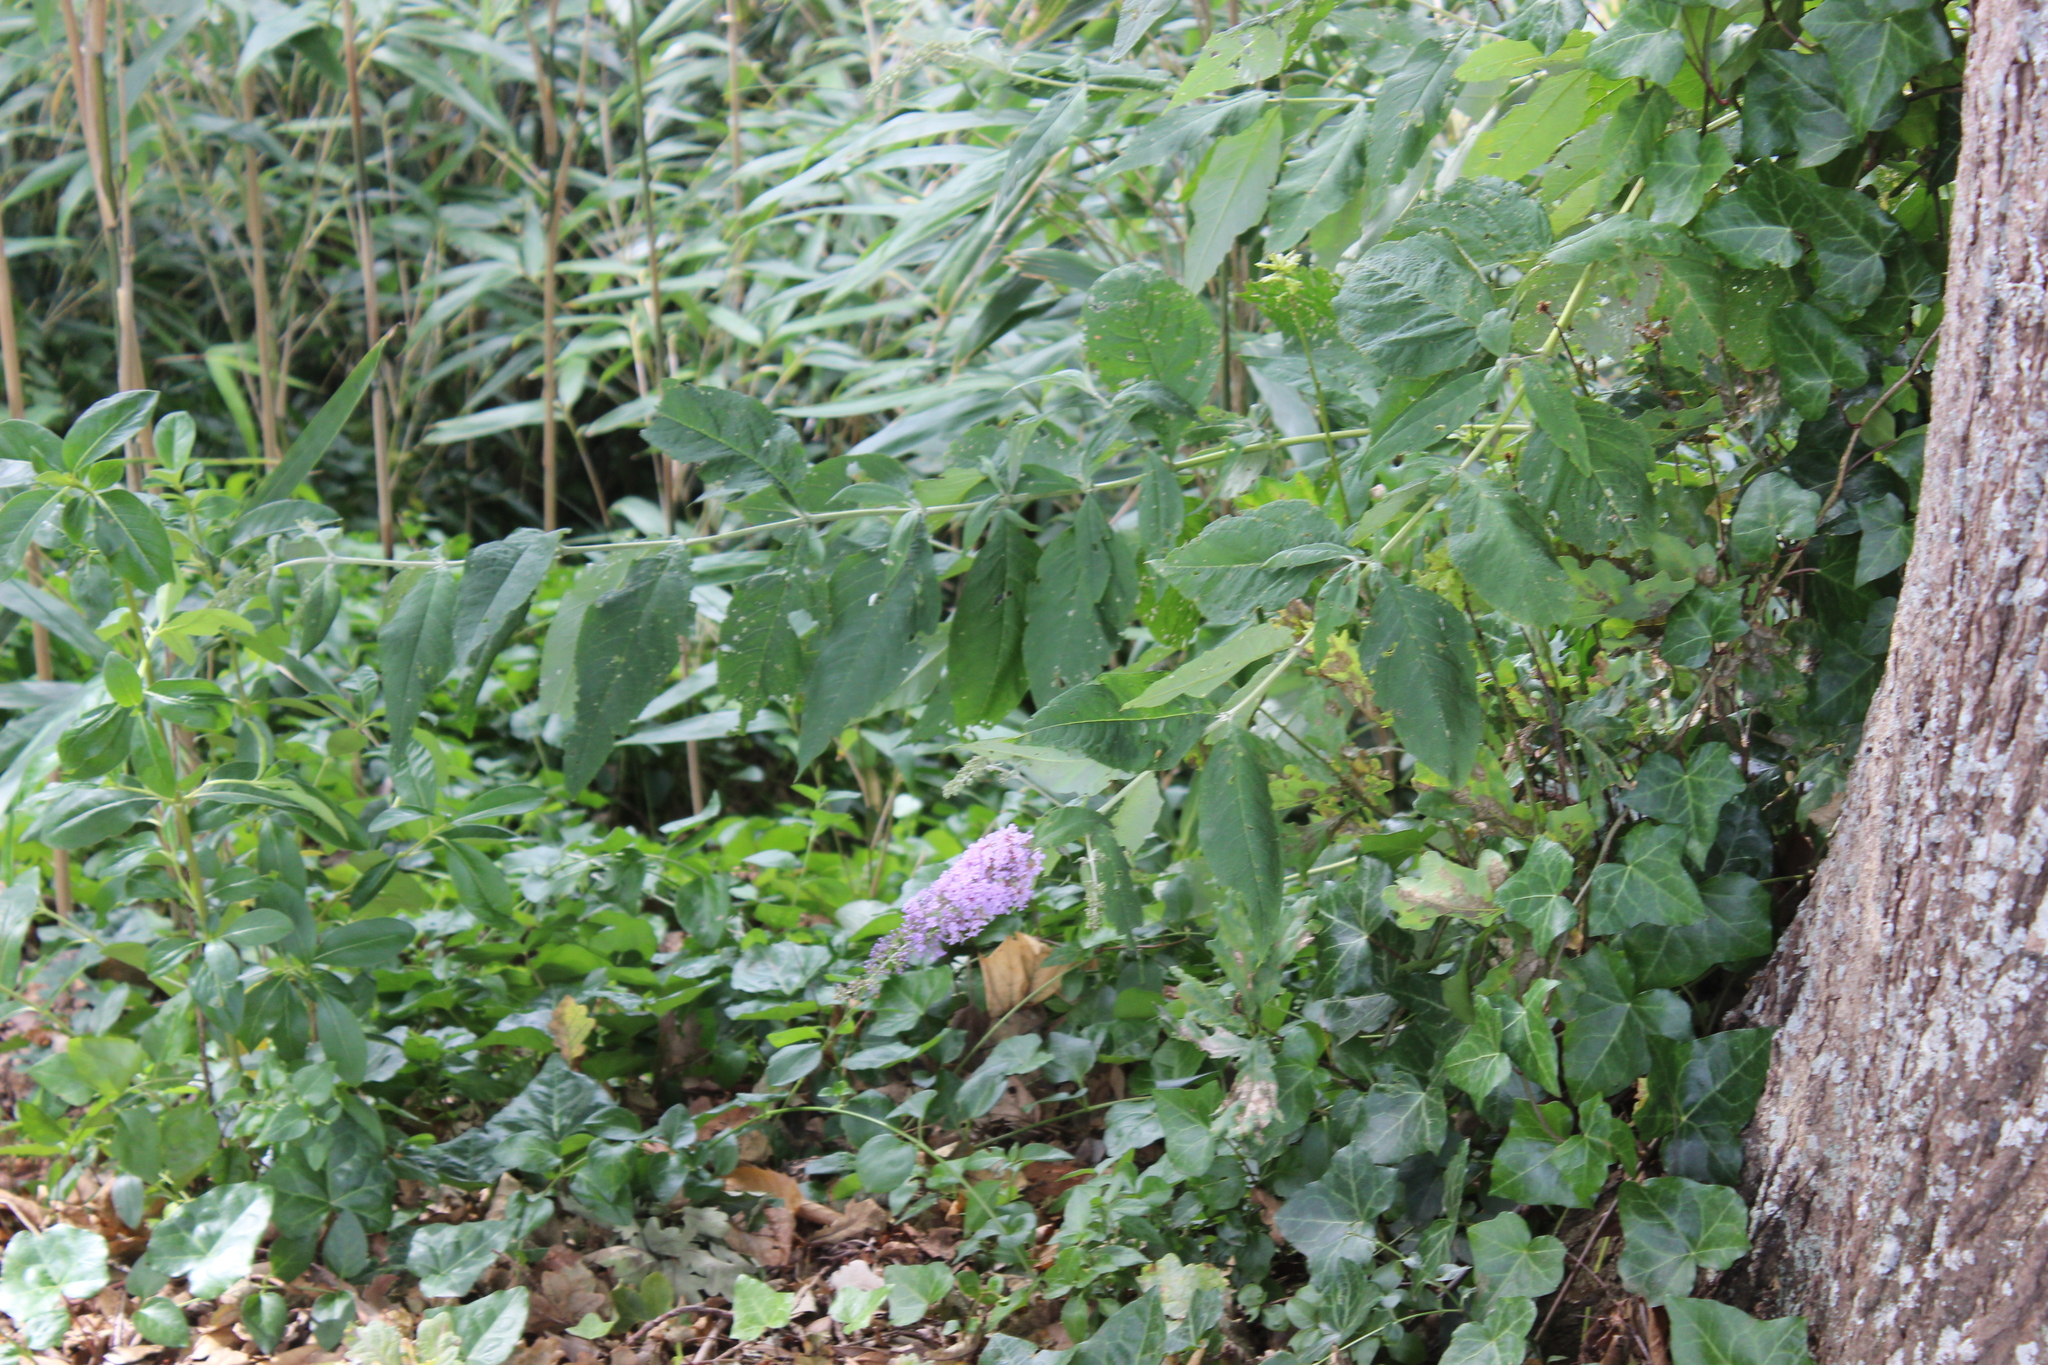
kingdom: Plantae
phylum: Tracheophyta
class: Magnoliopsida
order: Lamiales
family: Scrophulariaceae
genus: Buddleja
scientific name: Buddleja davidii
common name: Butterfly-bush
